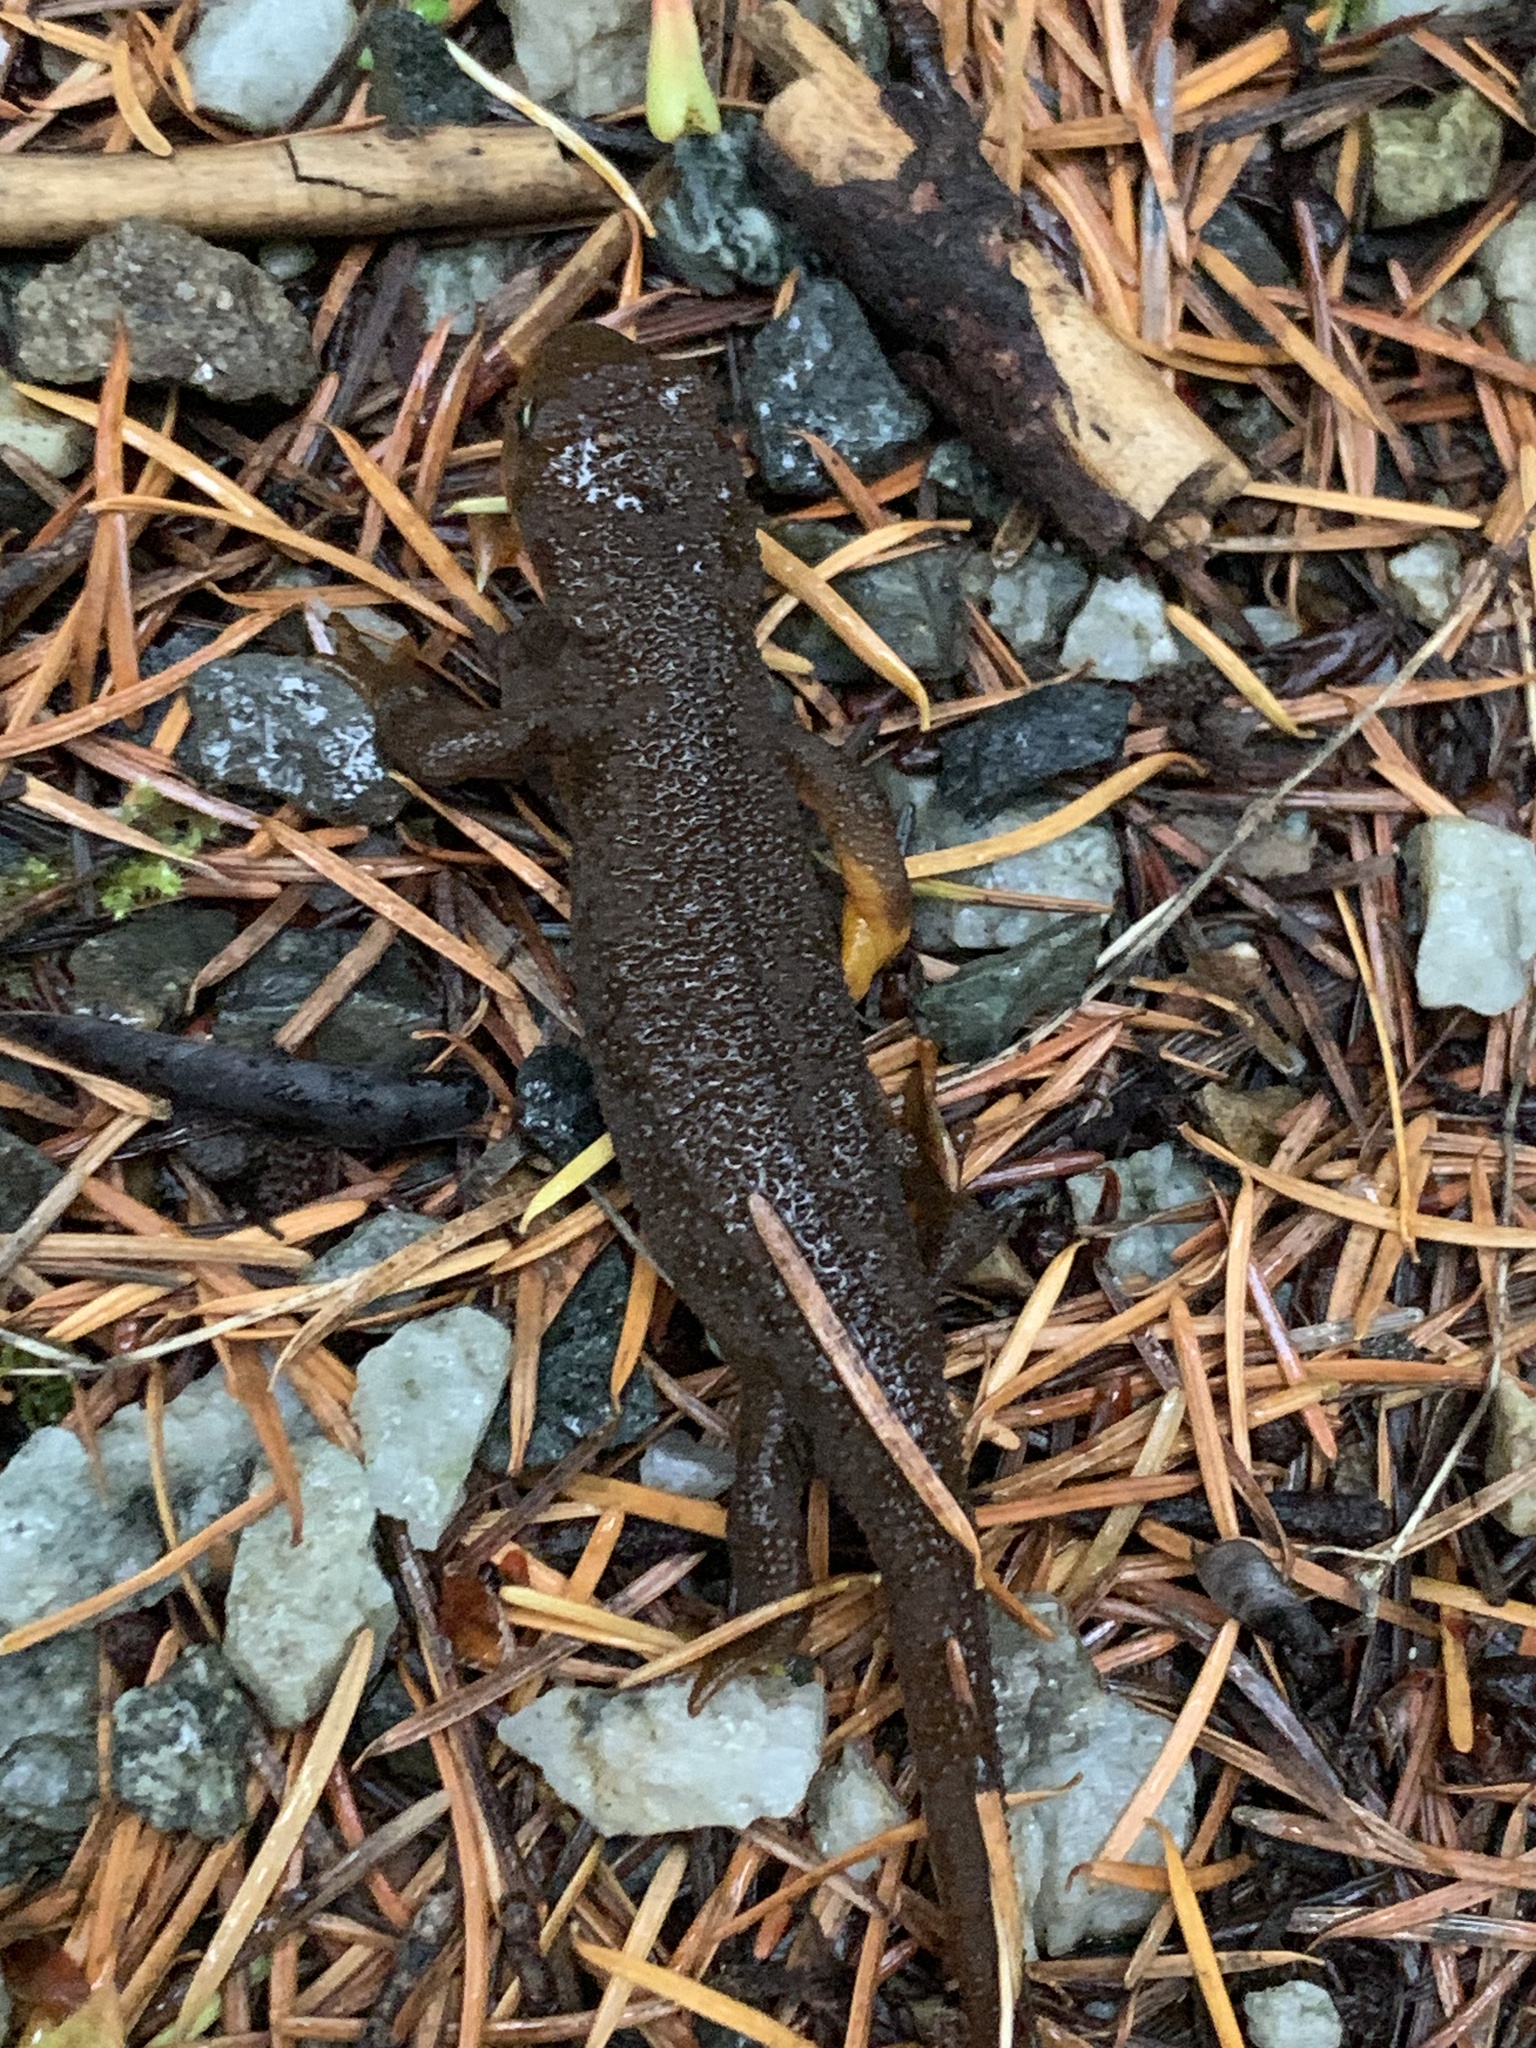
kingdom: Animalia
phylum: Chordata
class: Amphibia
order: Caudata
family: Salamandridae
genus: Taricha
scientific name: Taricha granulosa
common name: Roughskin newt
